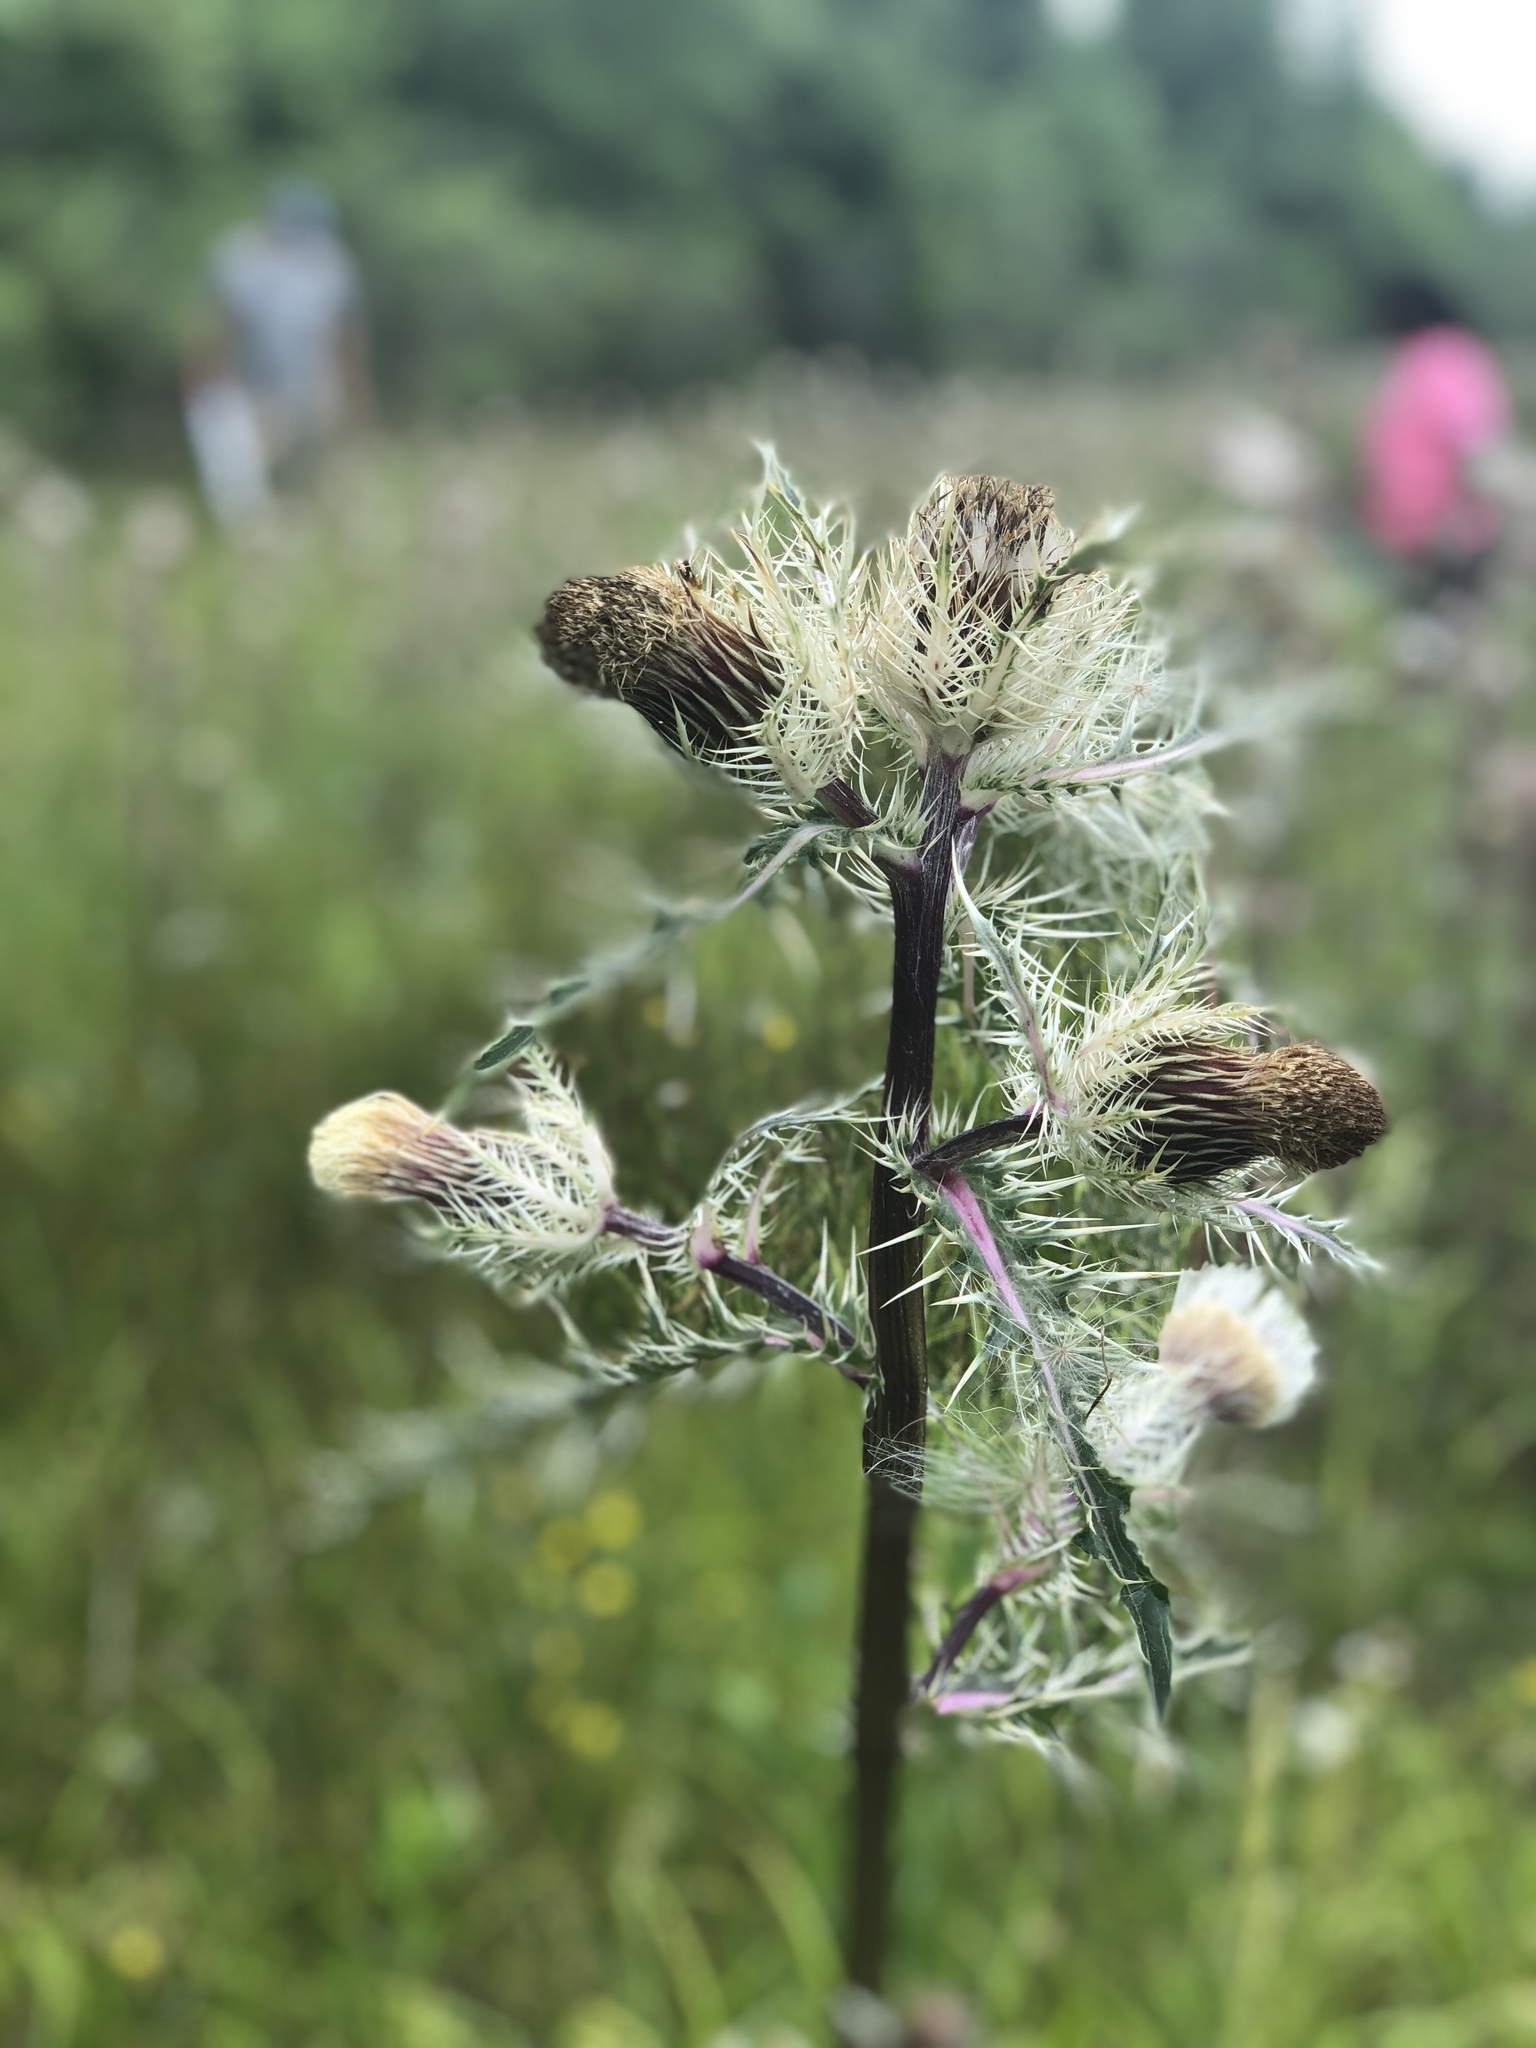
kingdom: Plantae
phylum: Tracheophyta
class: Magnoliopsida
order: Asterales
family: Asteraceae
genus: Cirsium
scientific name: Cirsium horridulum
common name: Bristly thistle
